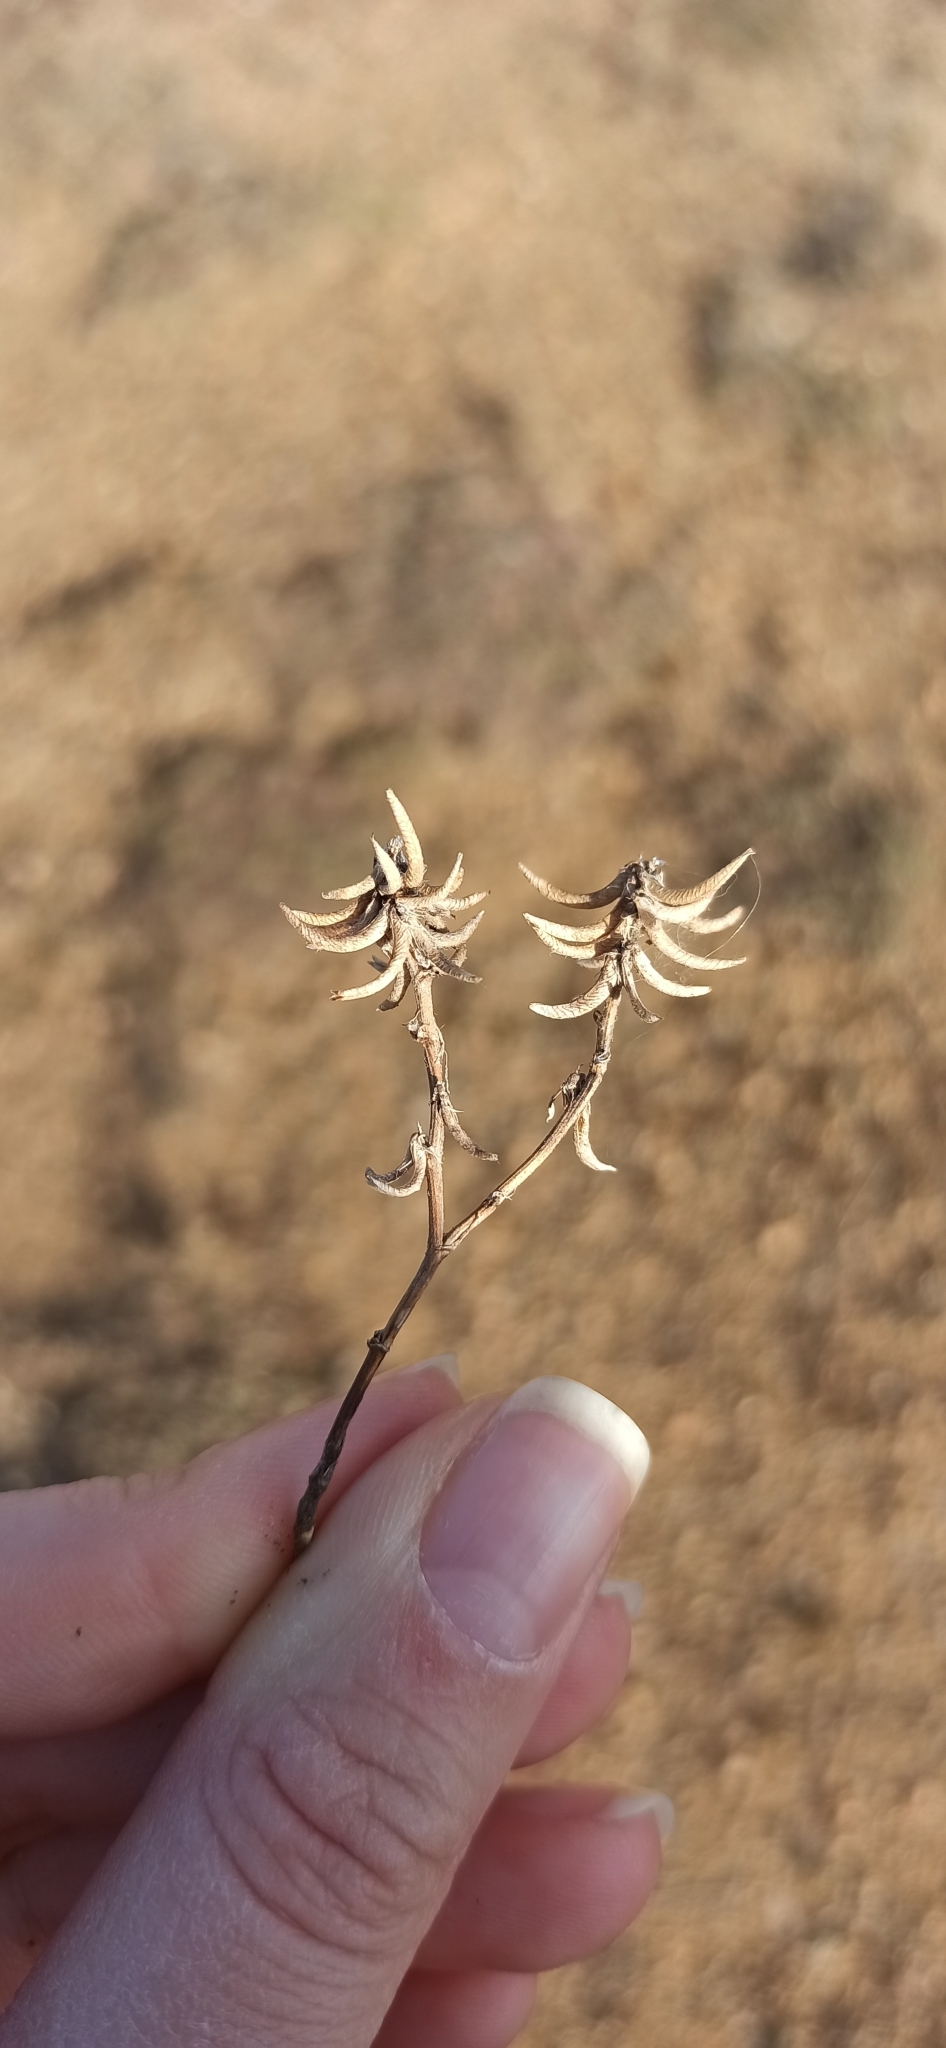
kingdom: Plantae
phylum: Tracheophyta
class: Magnoliopsida
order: Fabales
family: Fabaceae
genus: Medicago
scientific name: Medicago monspeliaca
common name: Hairy medick
